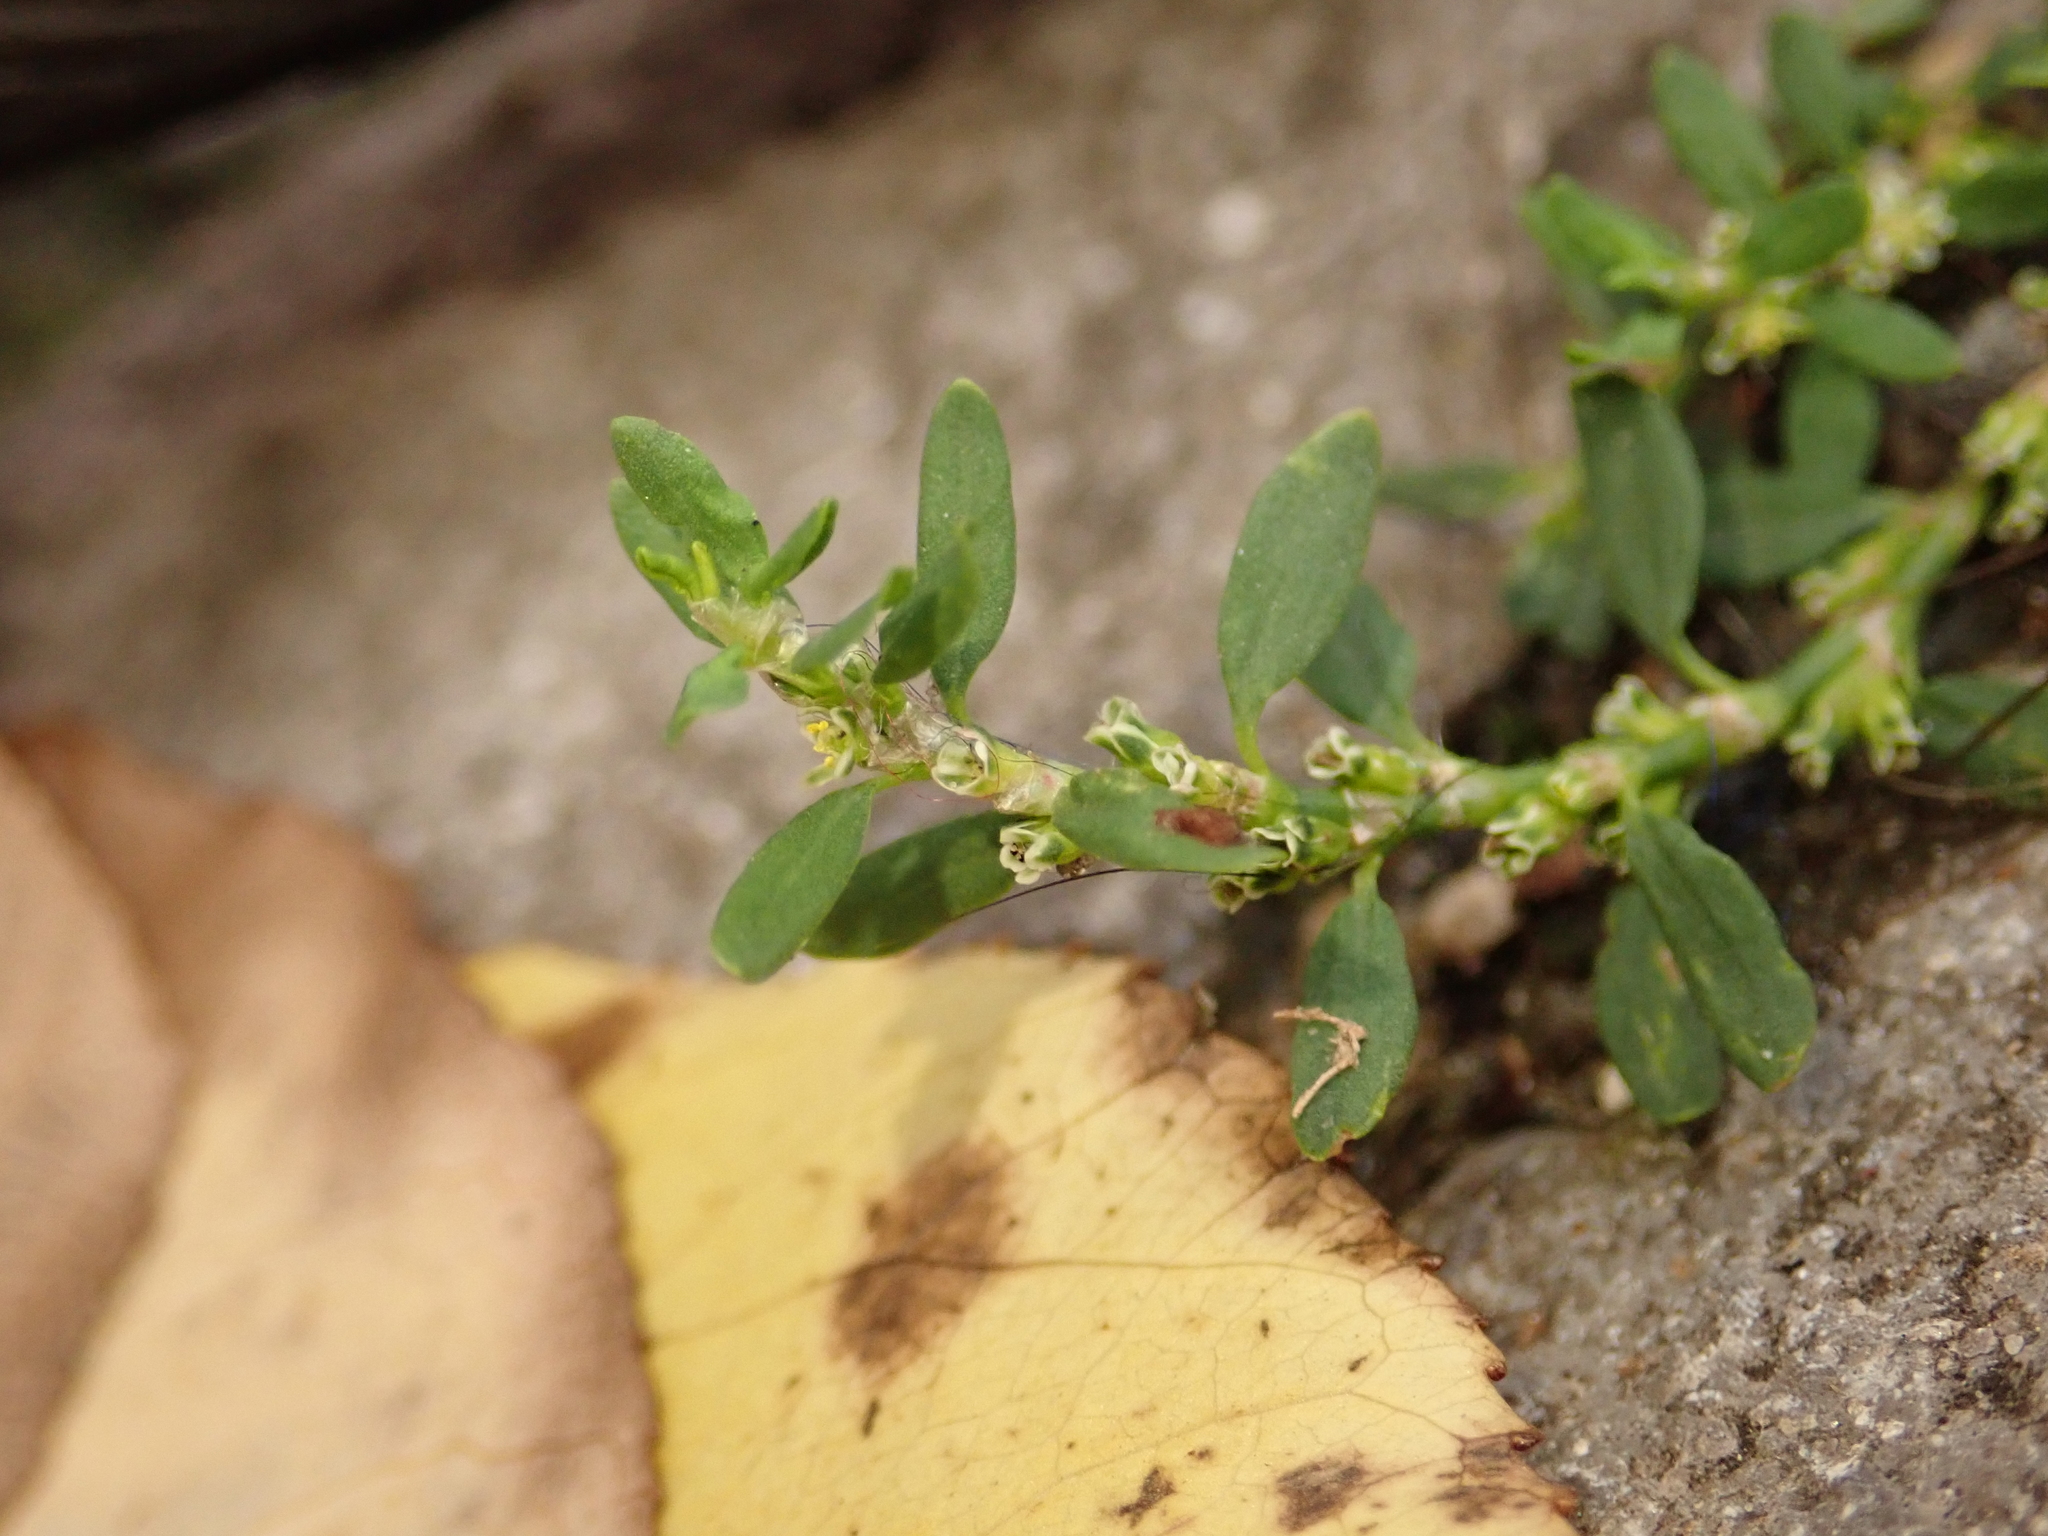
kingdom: Plantae
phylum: Tracheophyta
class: Magnoliopsida
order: Caryophyllales
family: Polygonaceae
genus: Polygonum
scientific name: Polygonum aviculare
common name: Prostrate knotweed
